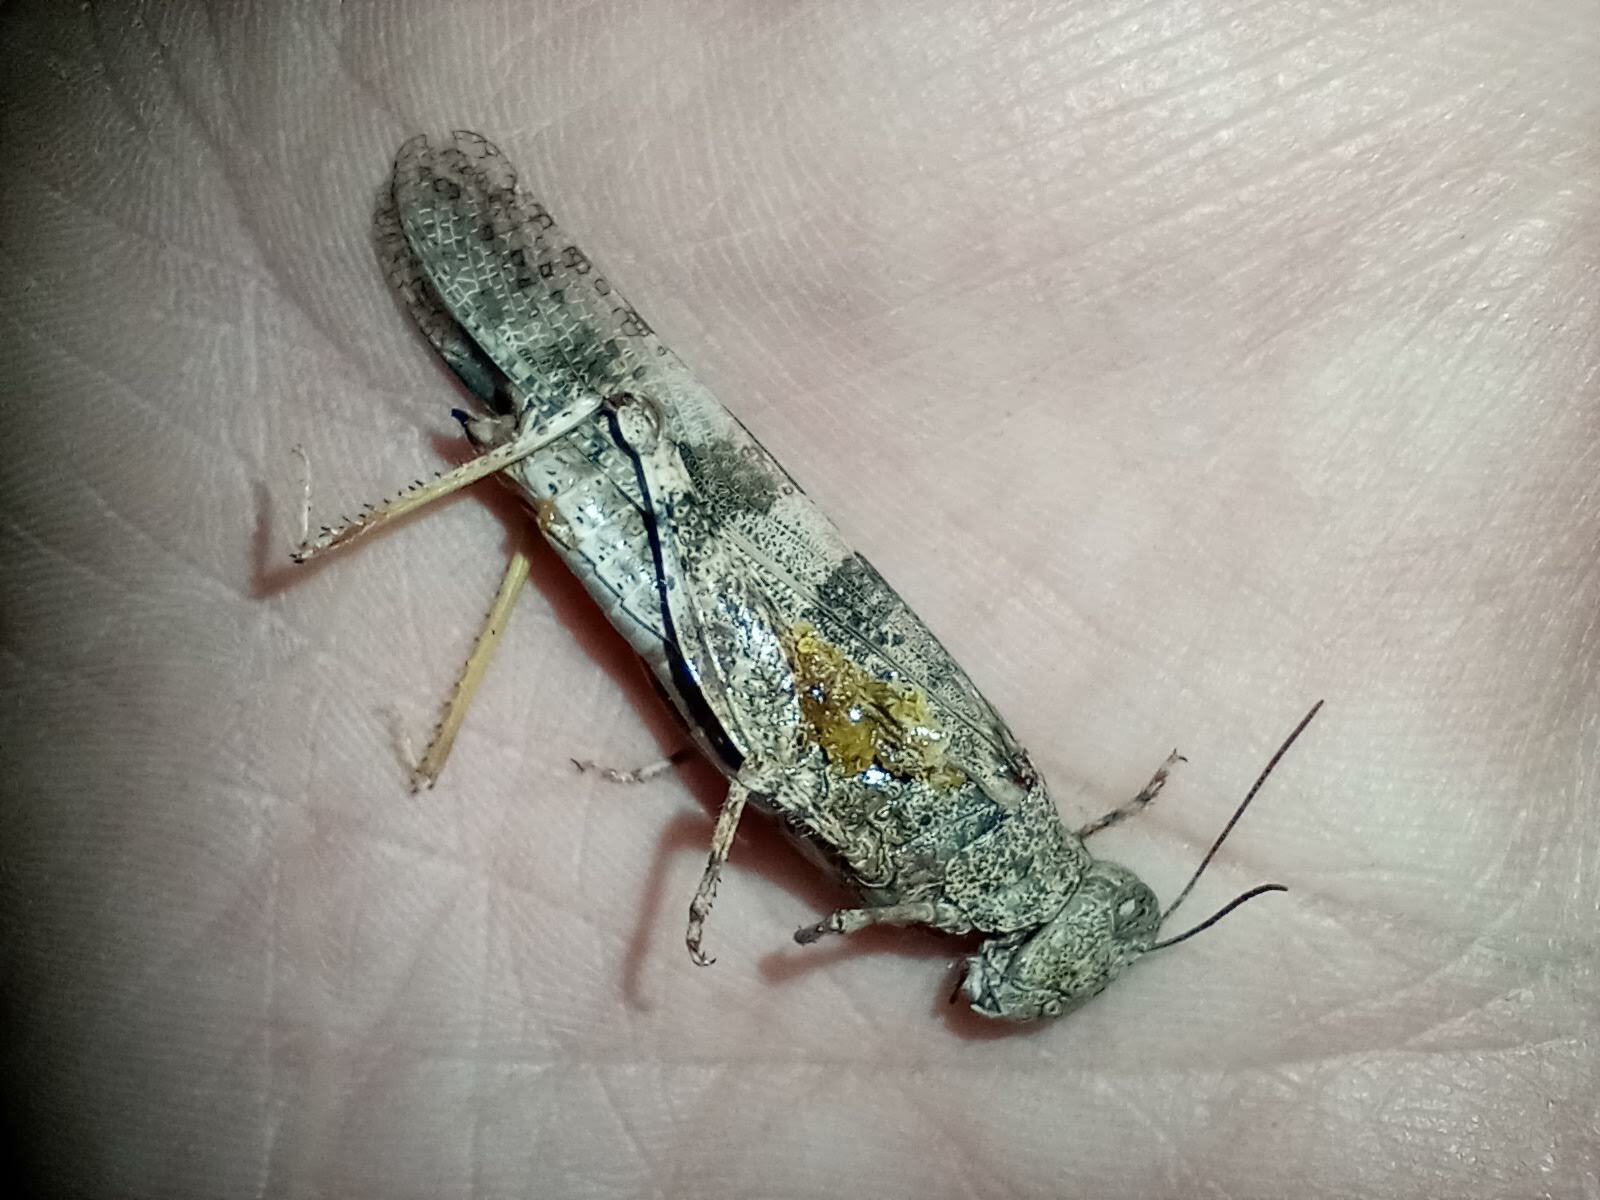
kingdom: Animalia
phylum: Arthropoda
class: Insecta
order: Orthoptera
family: Acrididae
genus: Trimerotropis
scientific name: Trimerotropis pallidipennis
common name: Pallid-winged grasshopper
